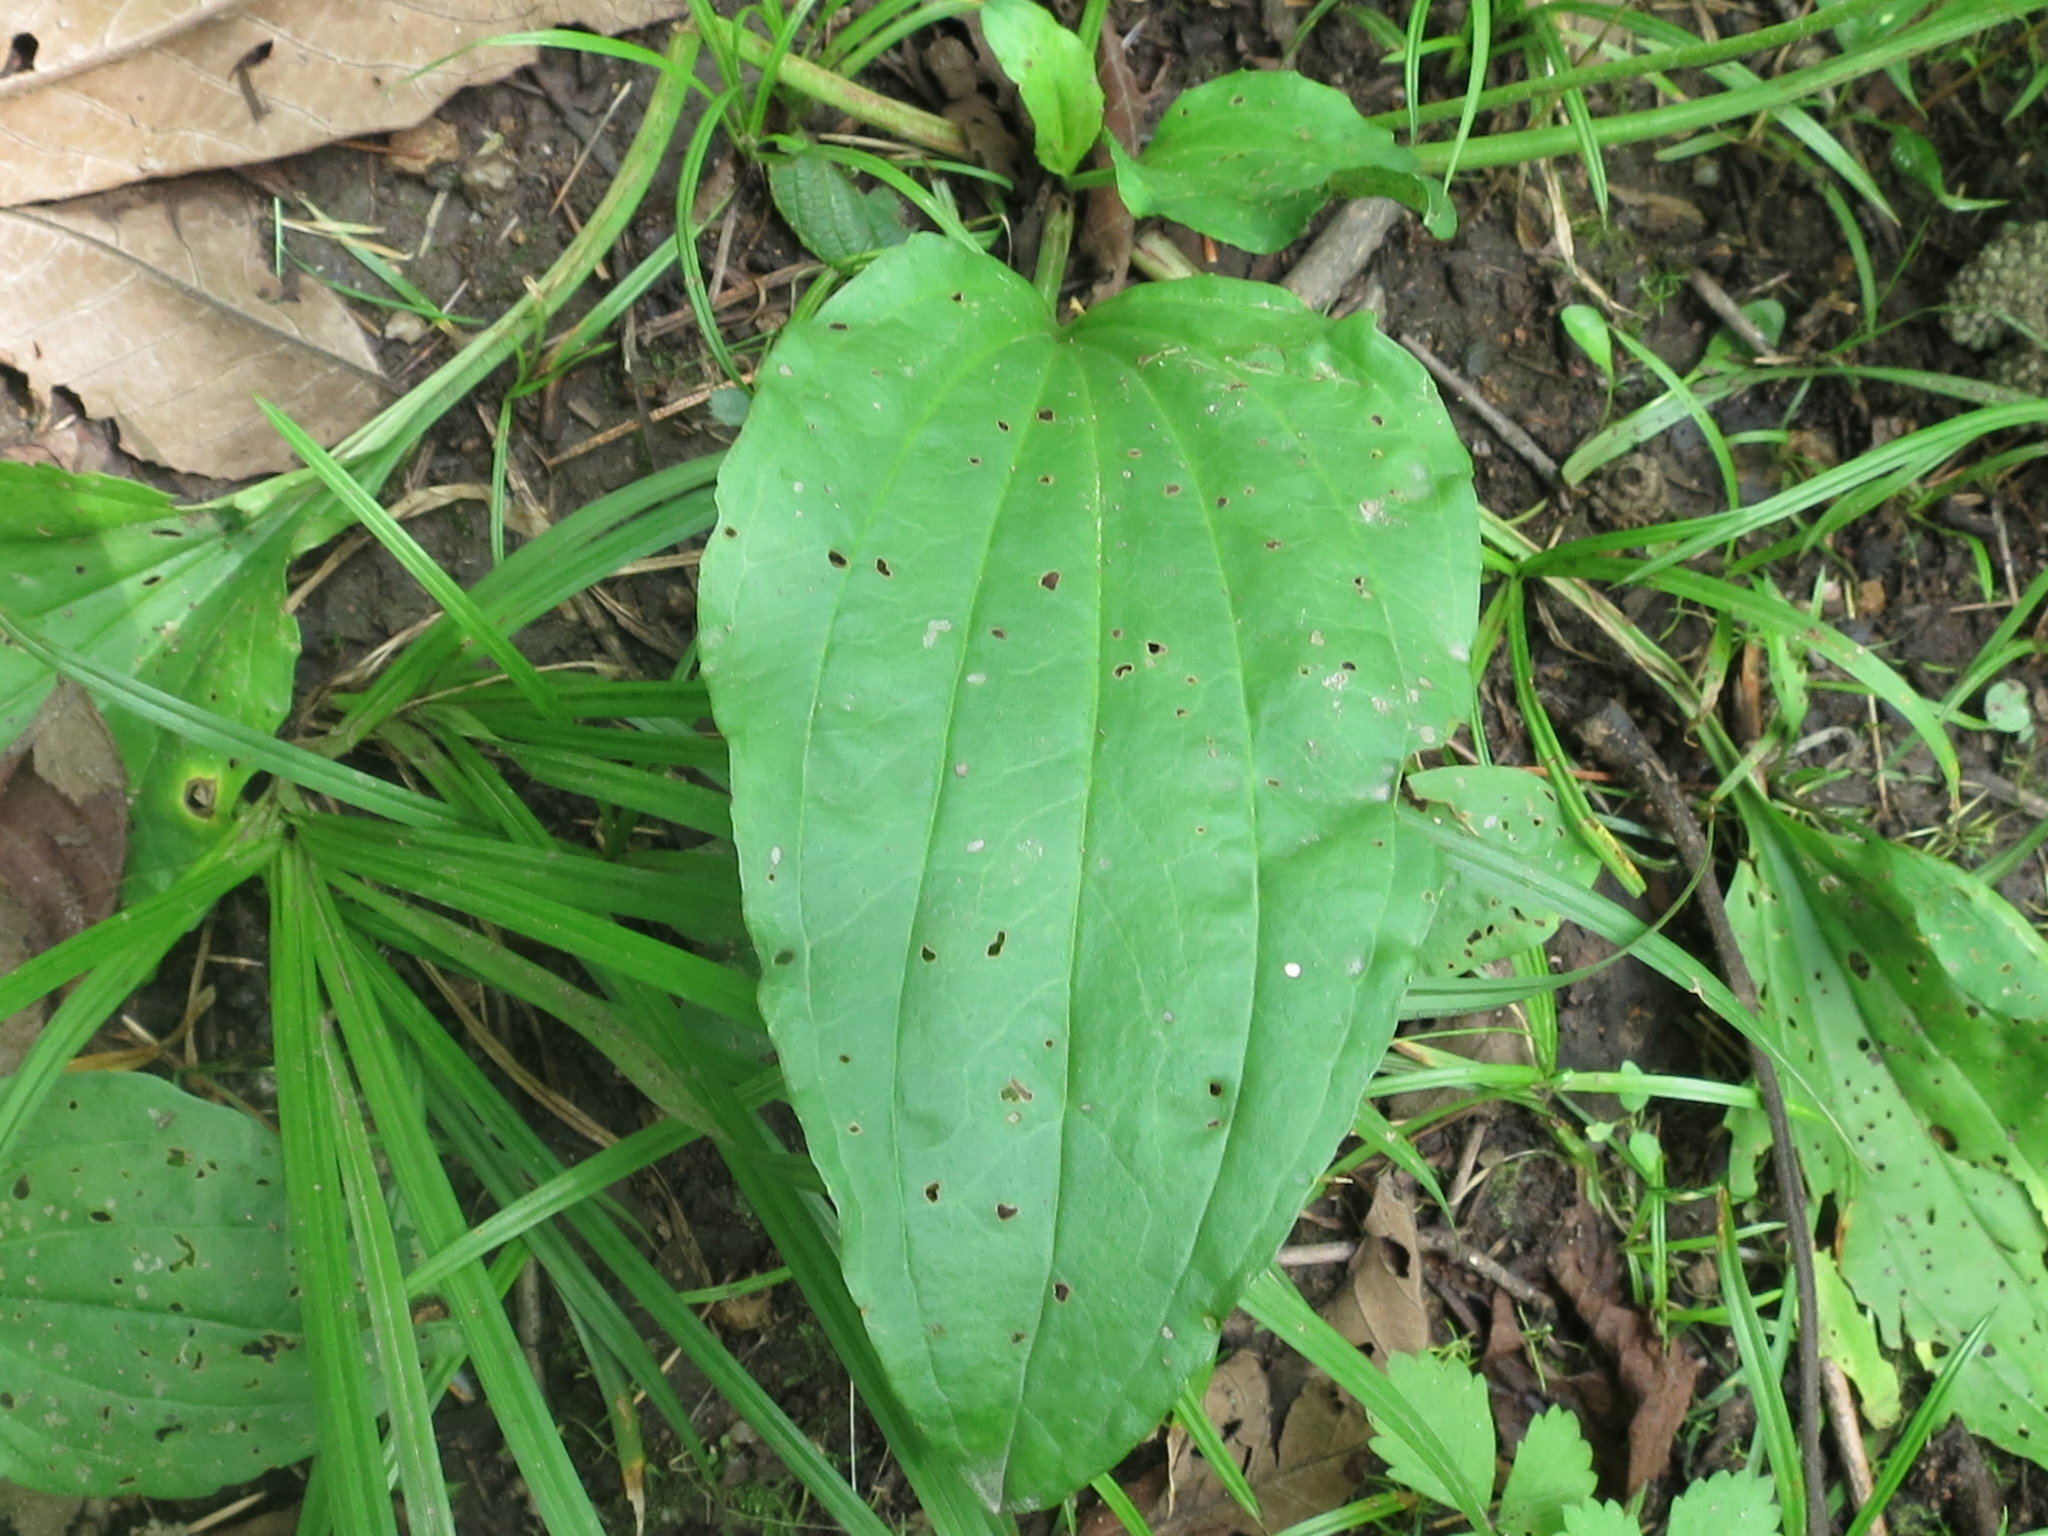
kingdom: Plantae
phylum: Tracheophyta
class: Magnoliopsida
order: Lamiales
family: Plantaginaceae
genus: Plantago
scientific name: Plantago major
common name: Common plantain
